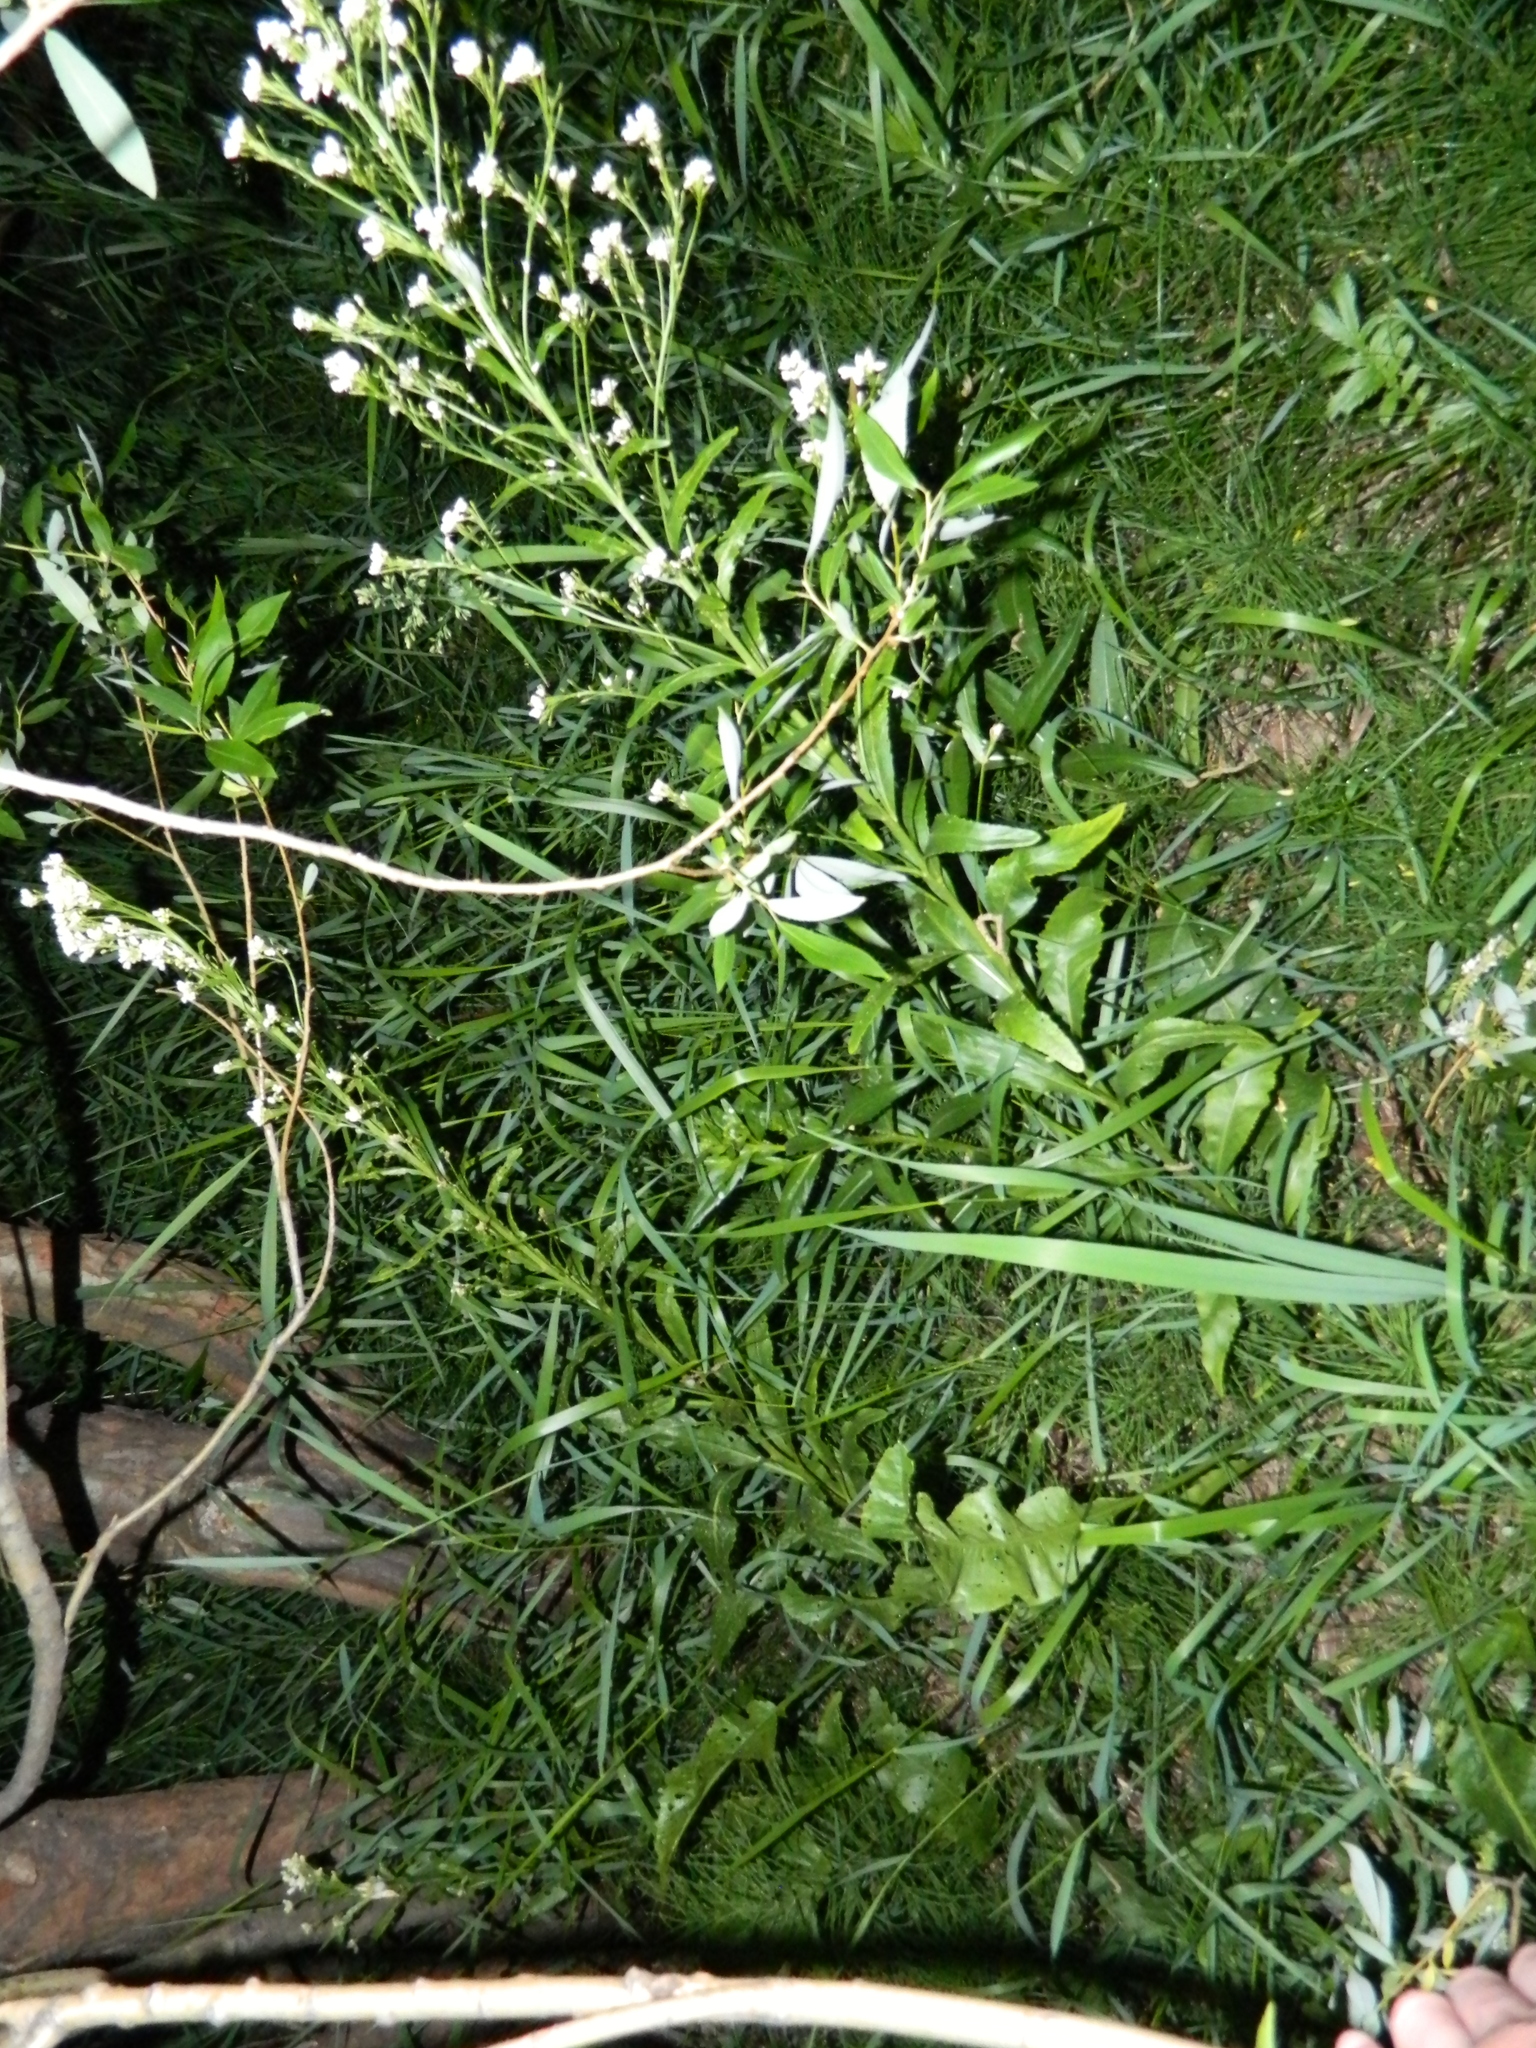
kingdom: Plantae
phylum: Tracheophyta
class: Magnoliopsida
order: Brassicales
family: Brassicaceae
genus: Armoracia
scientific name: Armoracia rusticana
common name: Horseradish
